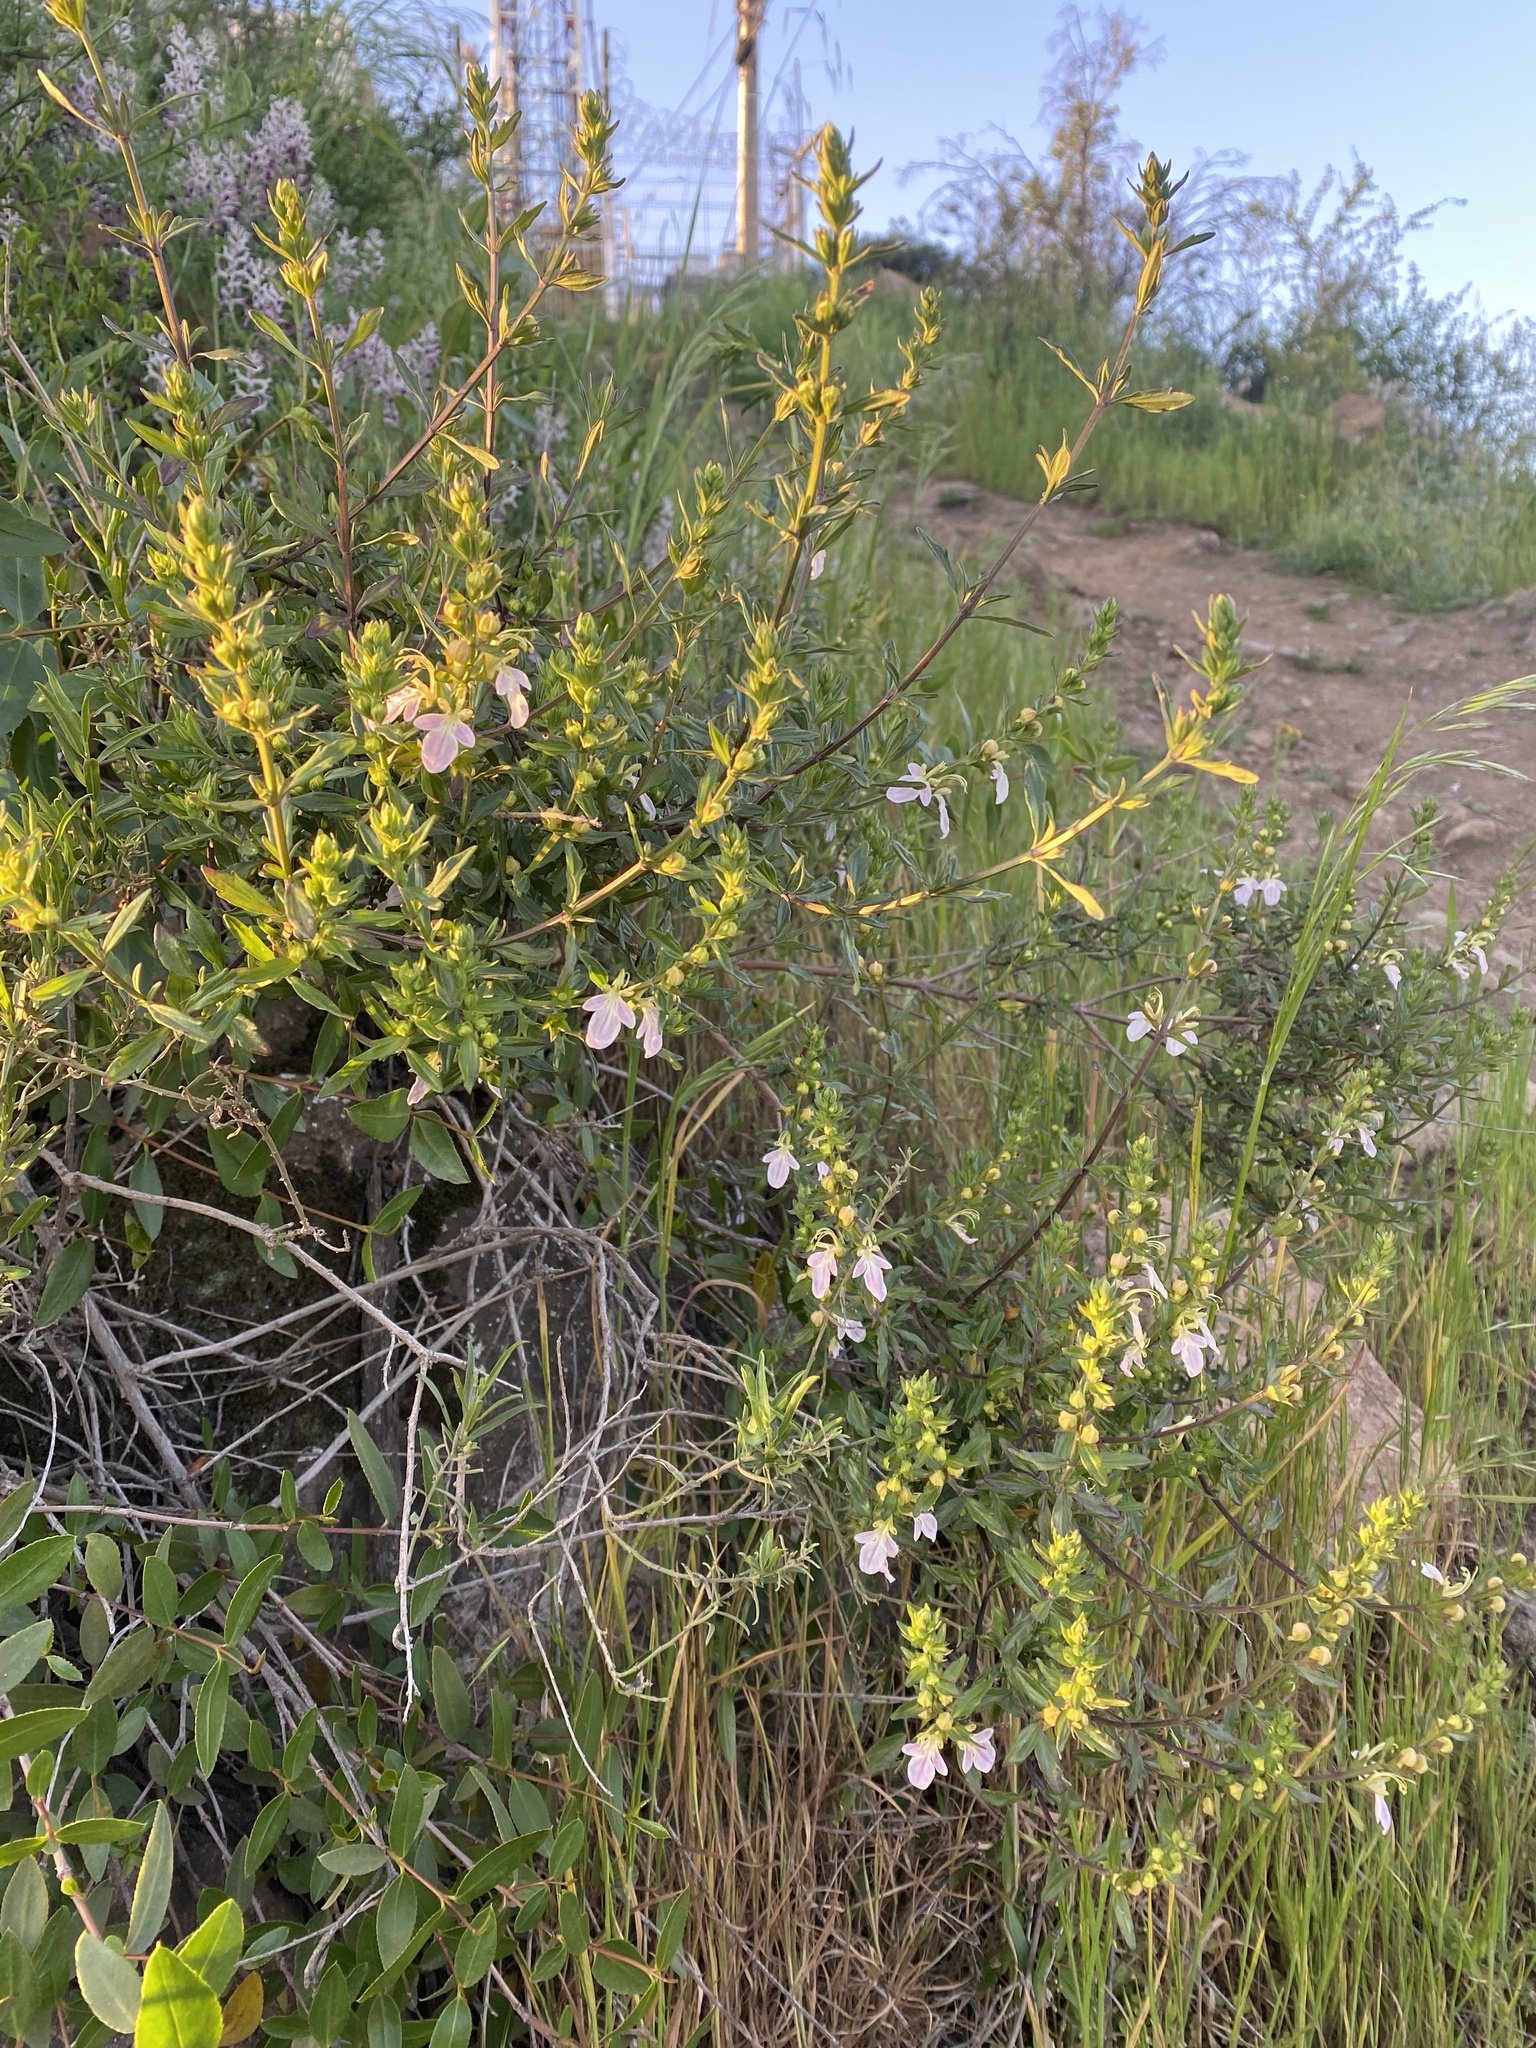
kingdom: Plantae
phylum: Tracheophyta
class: Magnoliopsida
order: Lamiales
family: Lamiaceae
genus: Teucrium
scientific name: Teucrium bicolor
